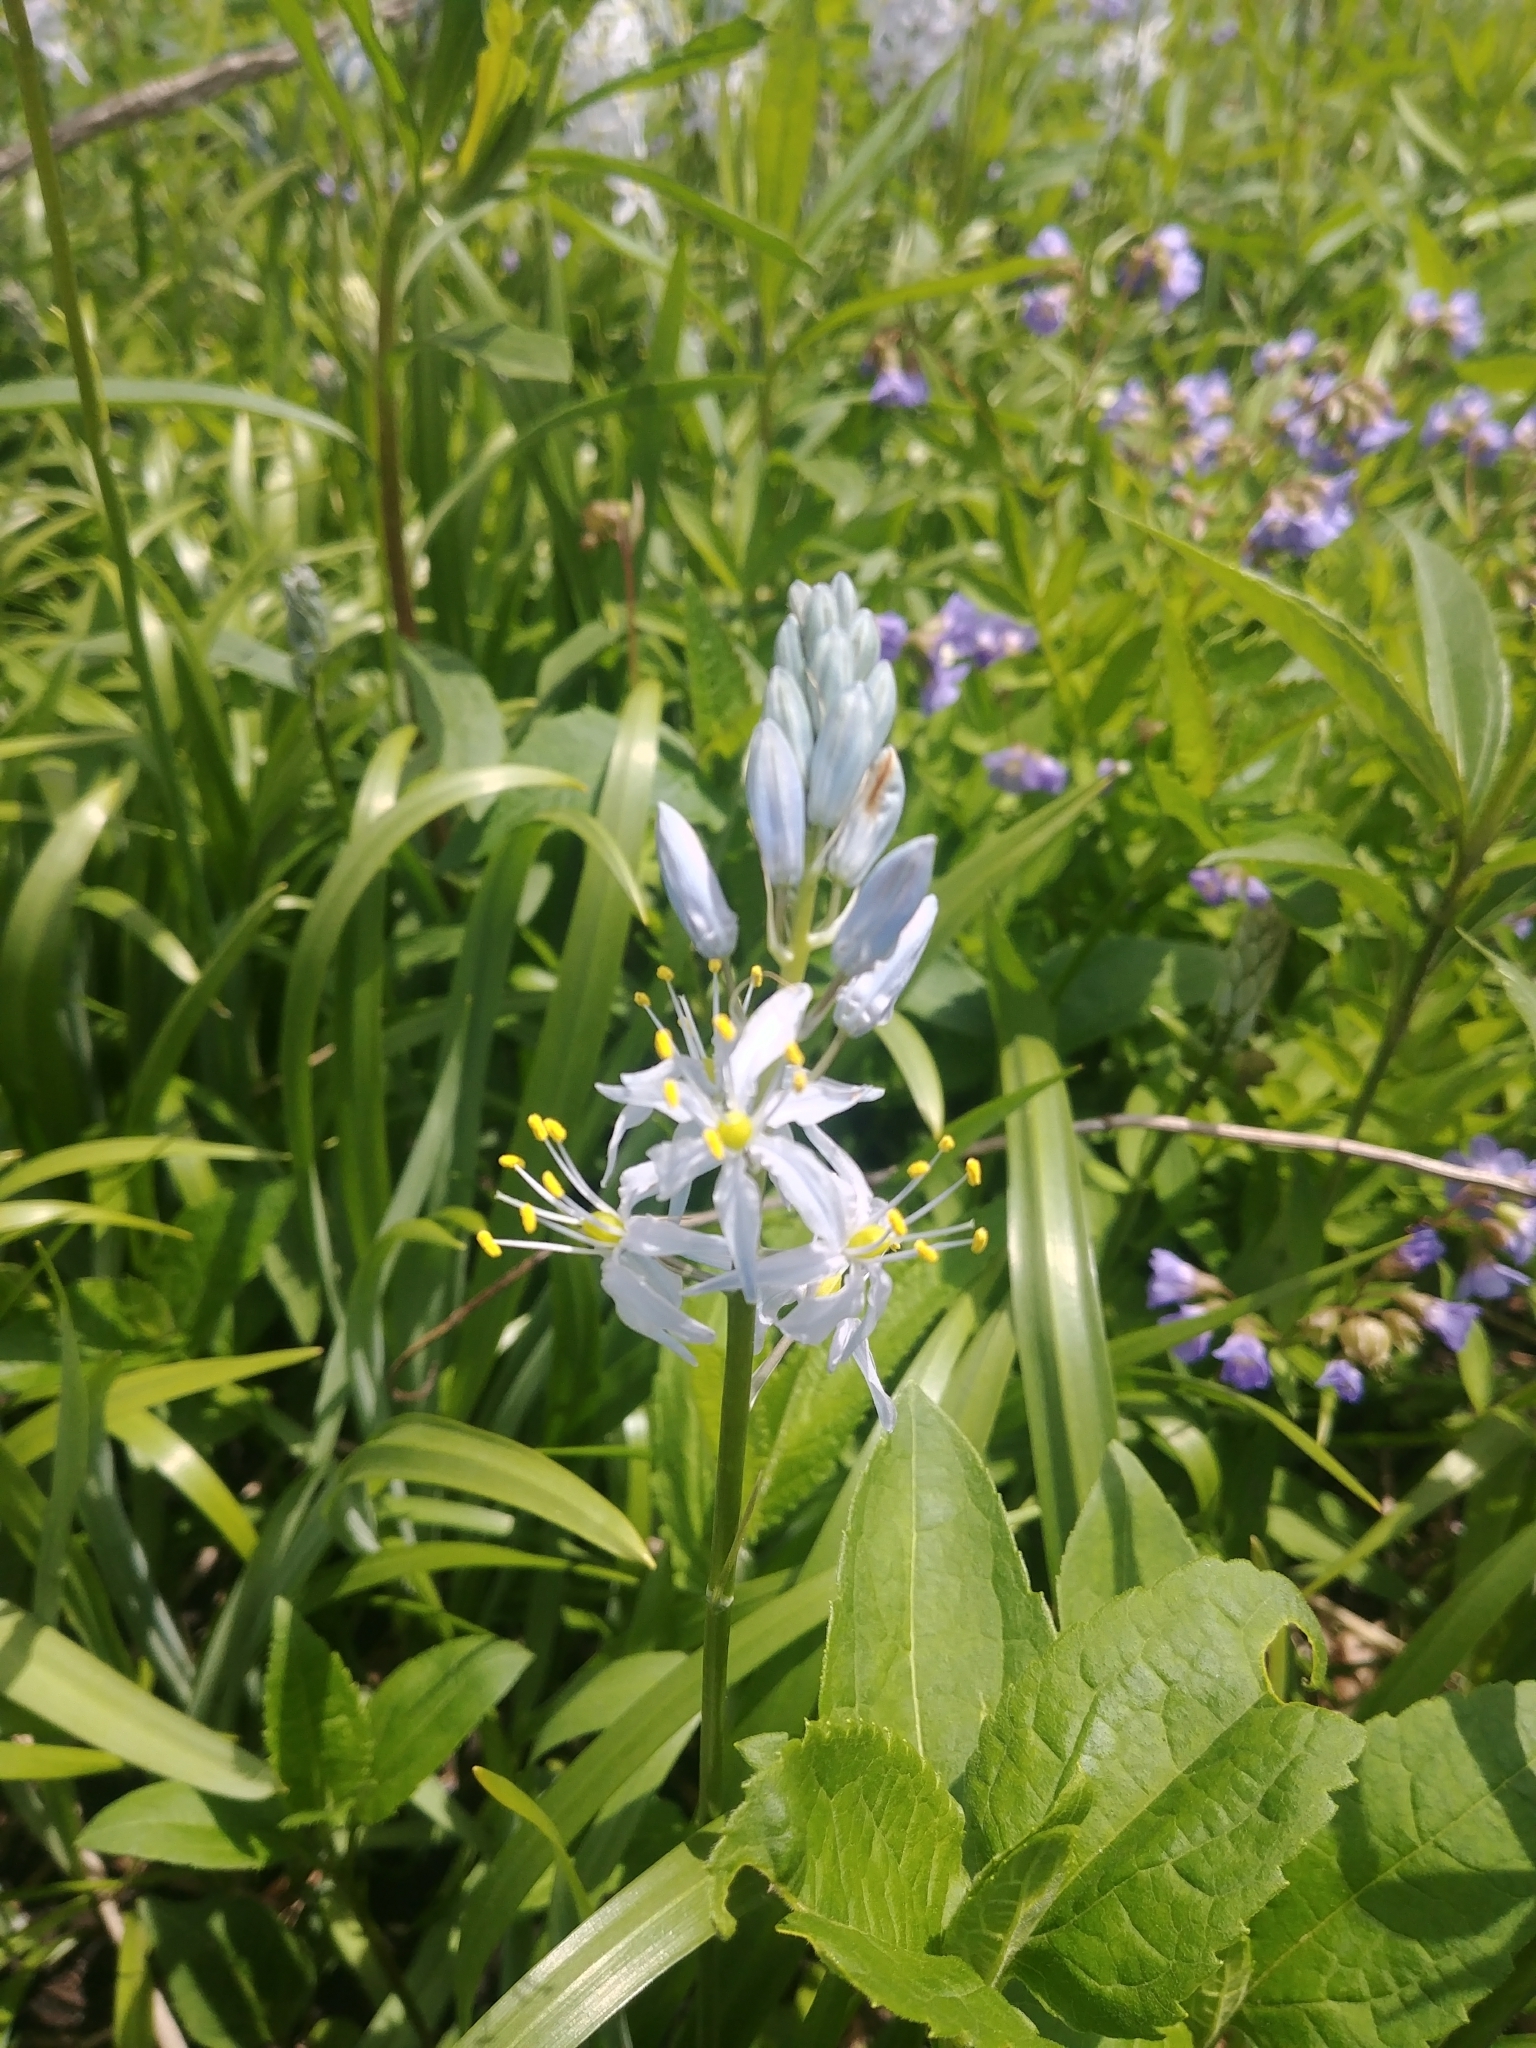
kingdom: Plantae
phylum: Tracheophyta
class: Liliopsida
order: Asparagales
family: Asparagaceae
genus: Camassia
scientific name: Camassia scilloides
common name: Wild hyacinth
